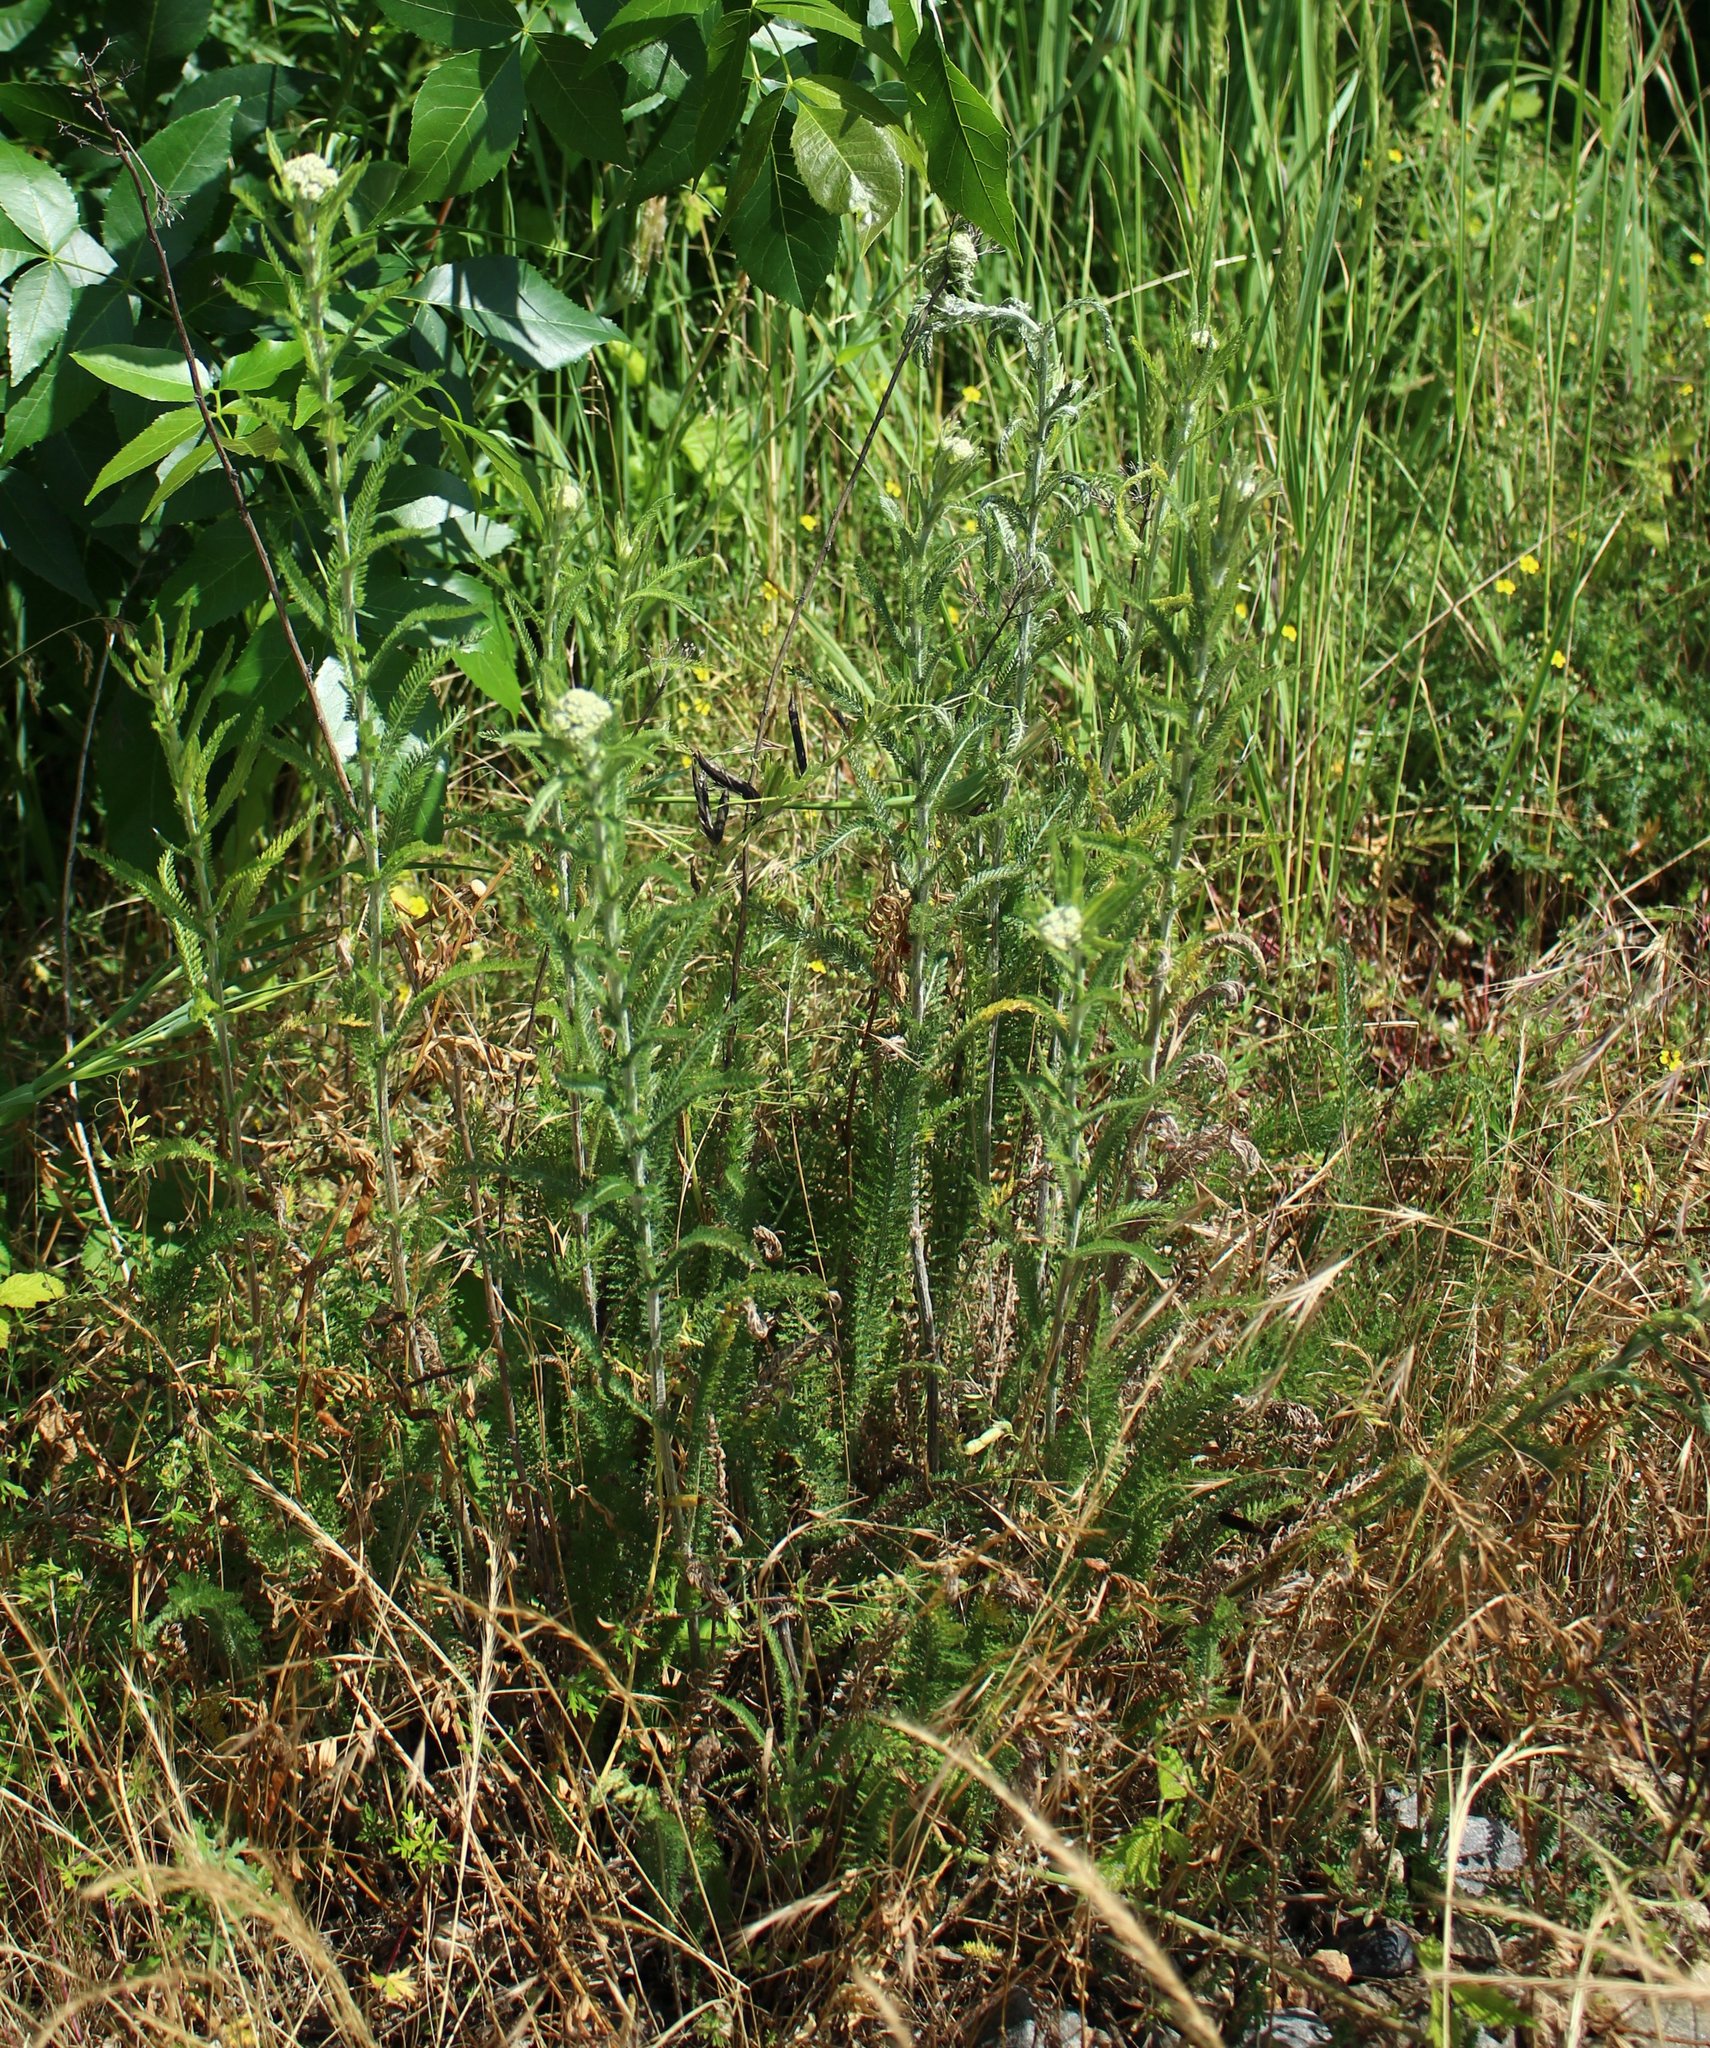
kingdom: Plantae
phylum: Tracheophyta
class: Magnoliopsida
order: Asterales
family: Asteraceae
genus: Achillea
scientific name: Achillea setacea
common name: Bristly yarrow
